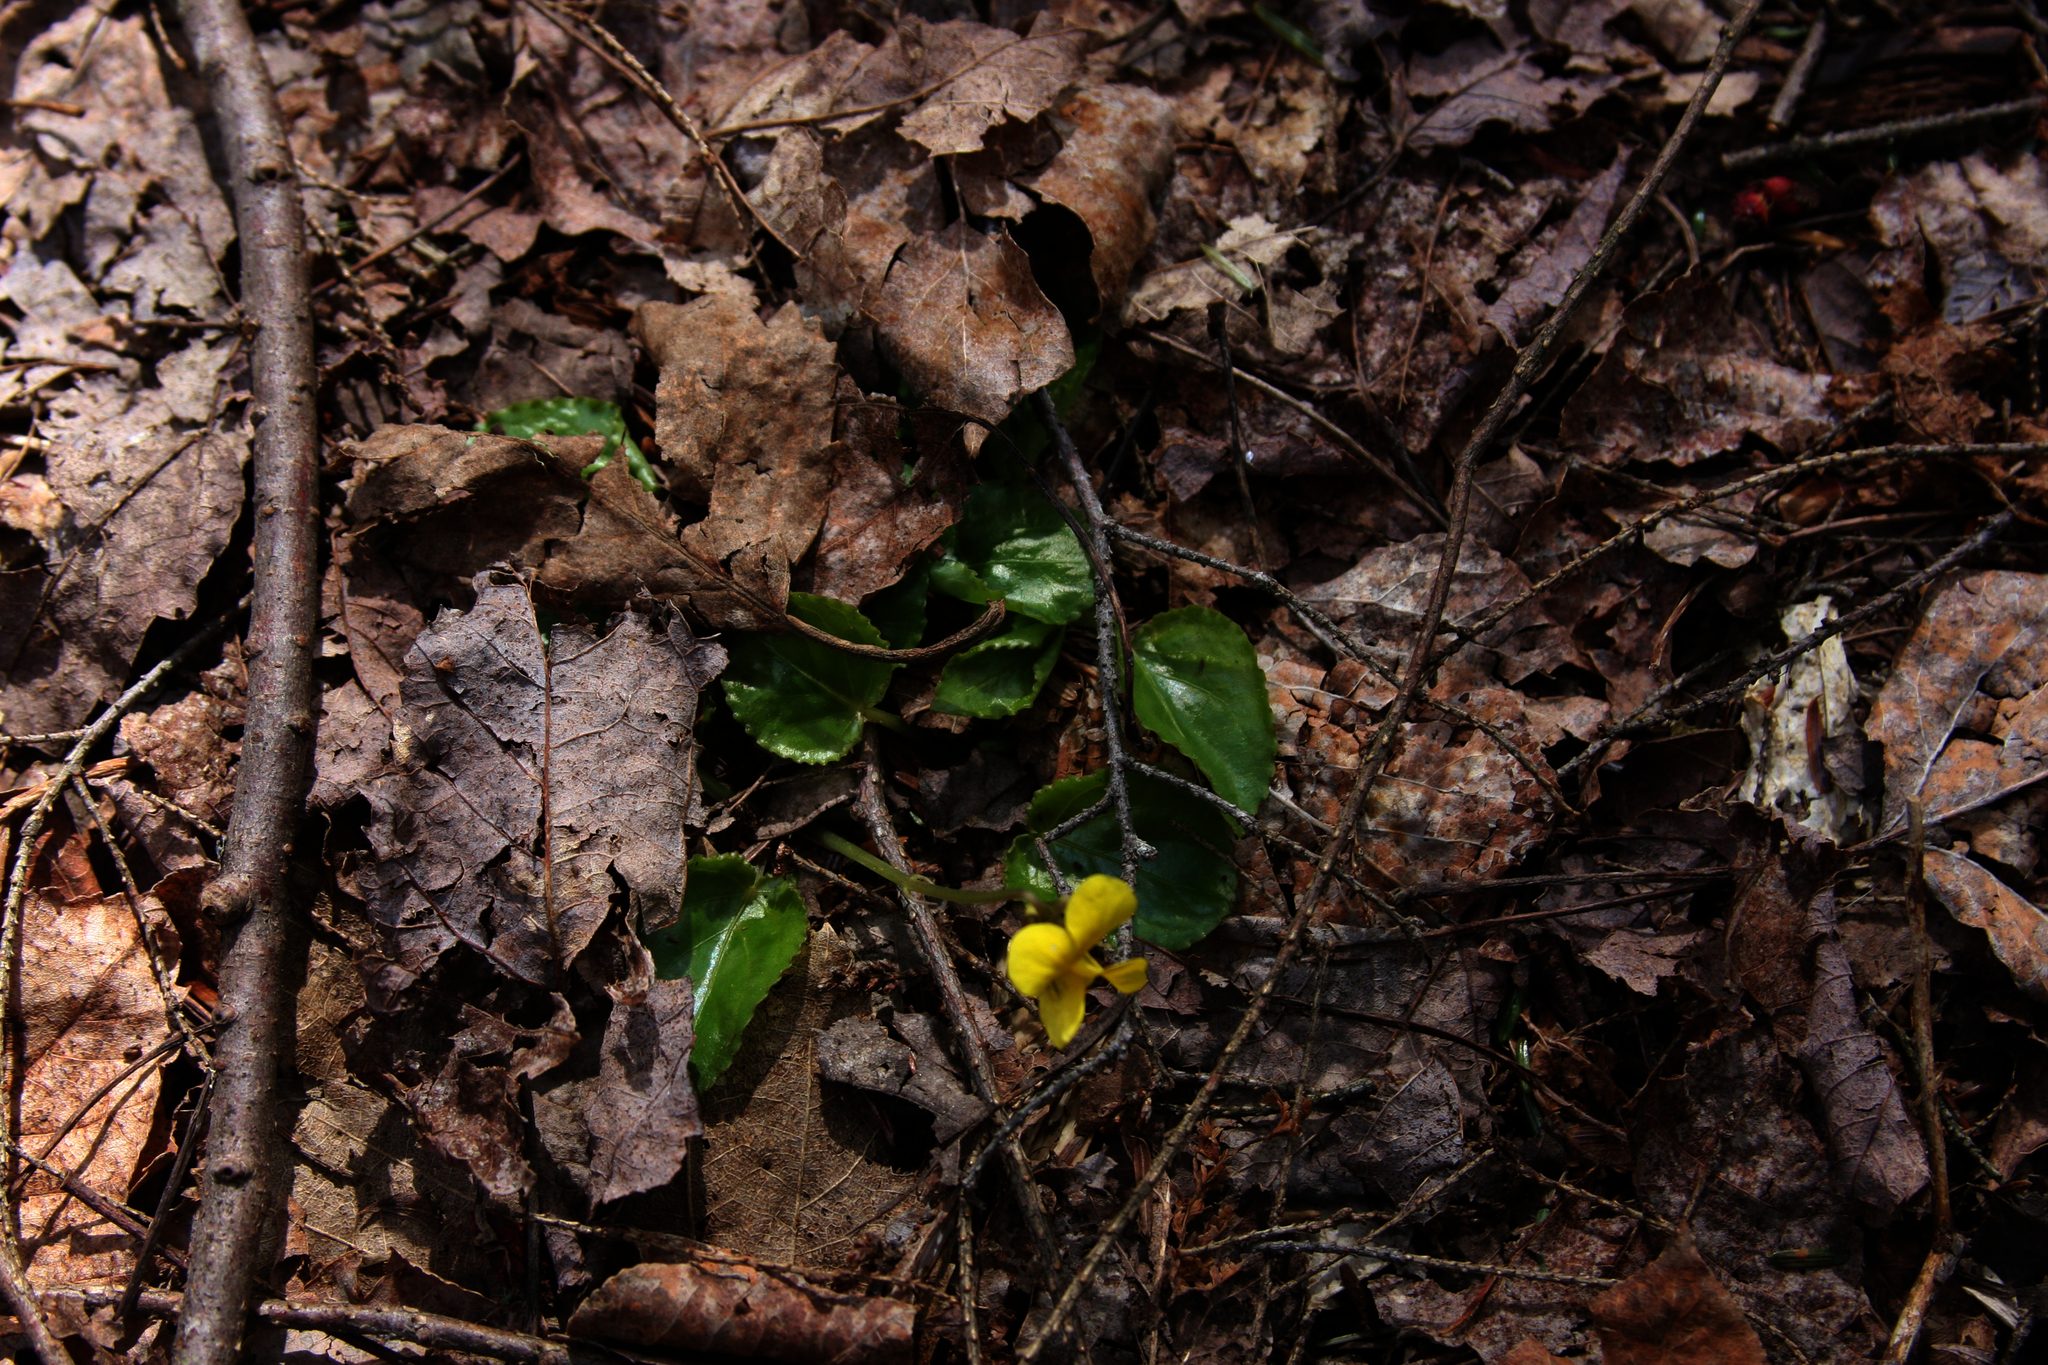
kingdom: Plantae
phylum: Tracheophyta
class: Magnoliopsida
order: Malpighiales
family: Violaceae
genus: Viola
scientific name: Viola rotundifolia
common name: Early yellow violet
